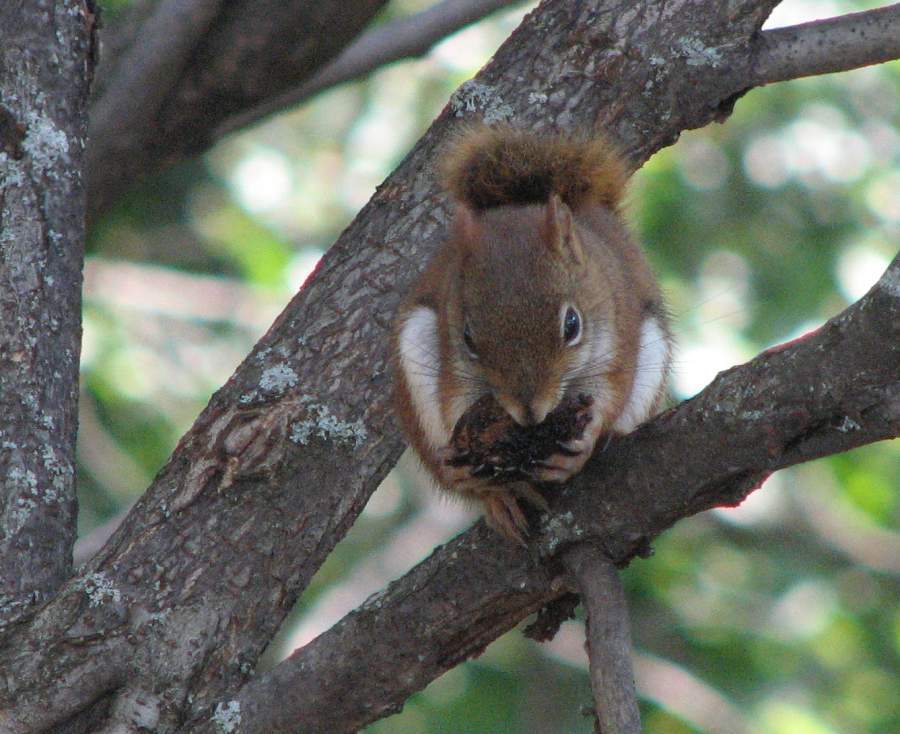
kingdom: Animalia
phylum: Chordata
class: Mammalia
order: Rodentia
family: Sciuridae
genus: Tamiasciurus
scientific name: Tamiasciurus hudsonicus
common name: Red squirrel
